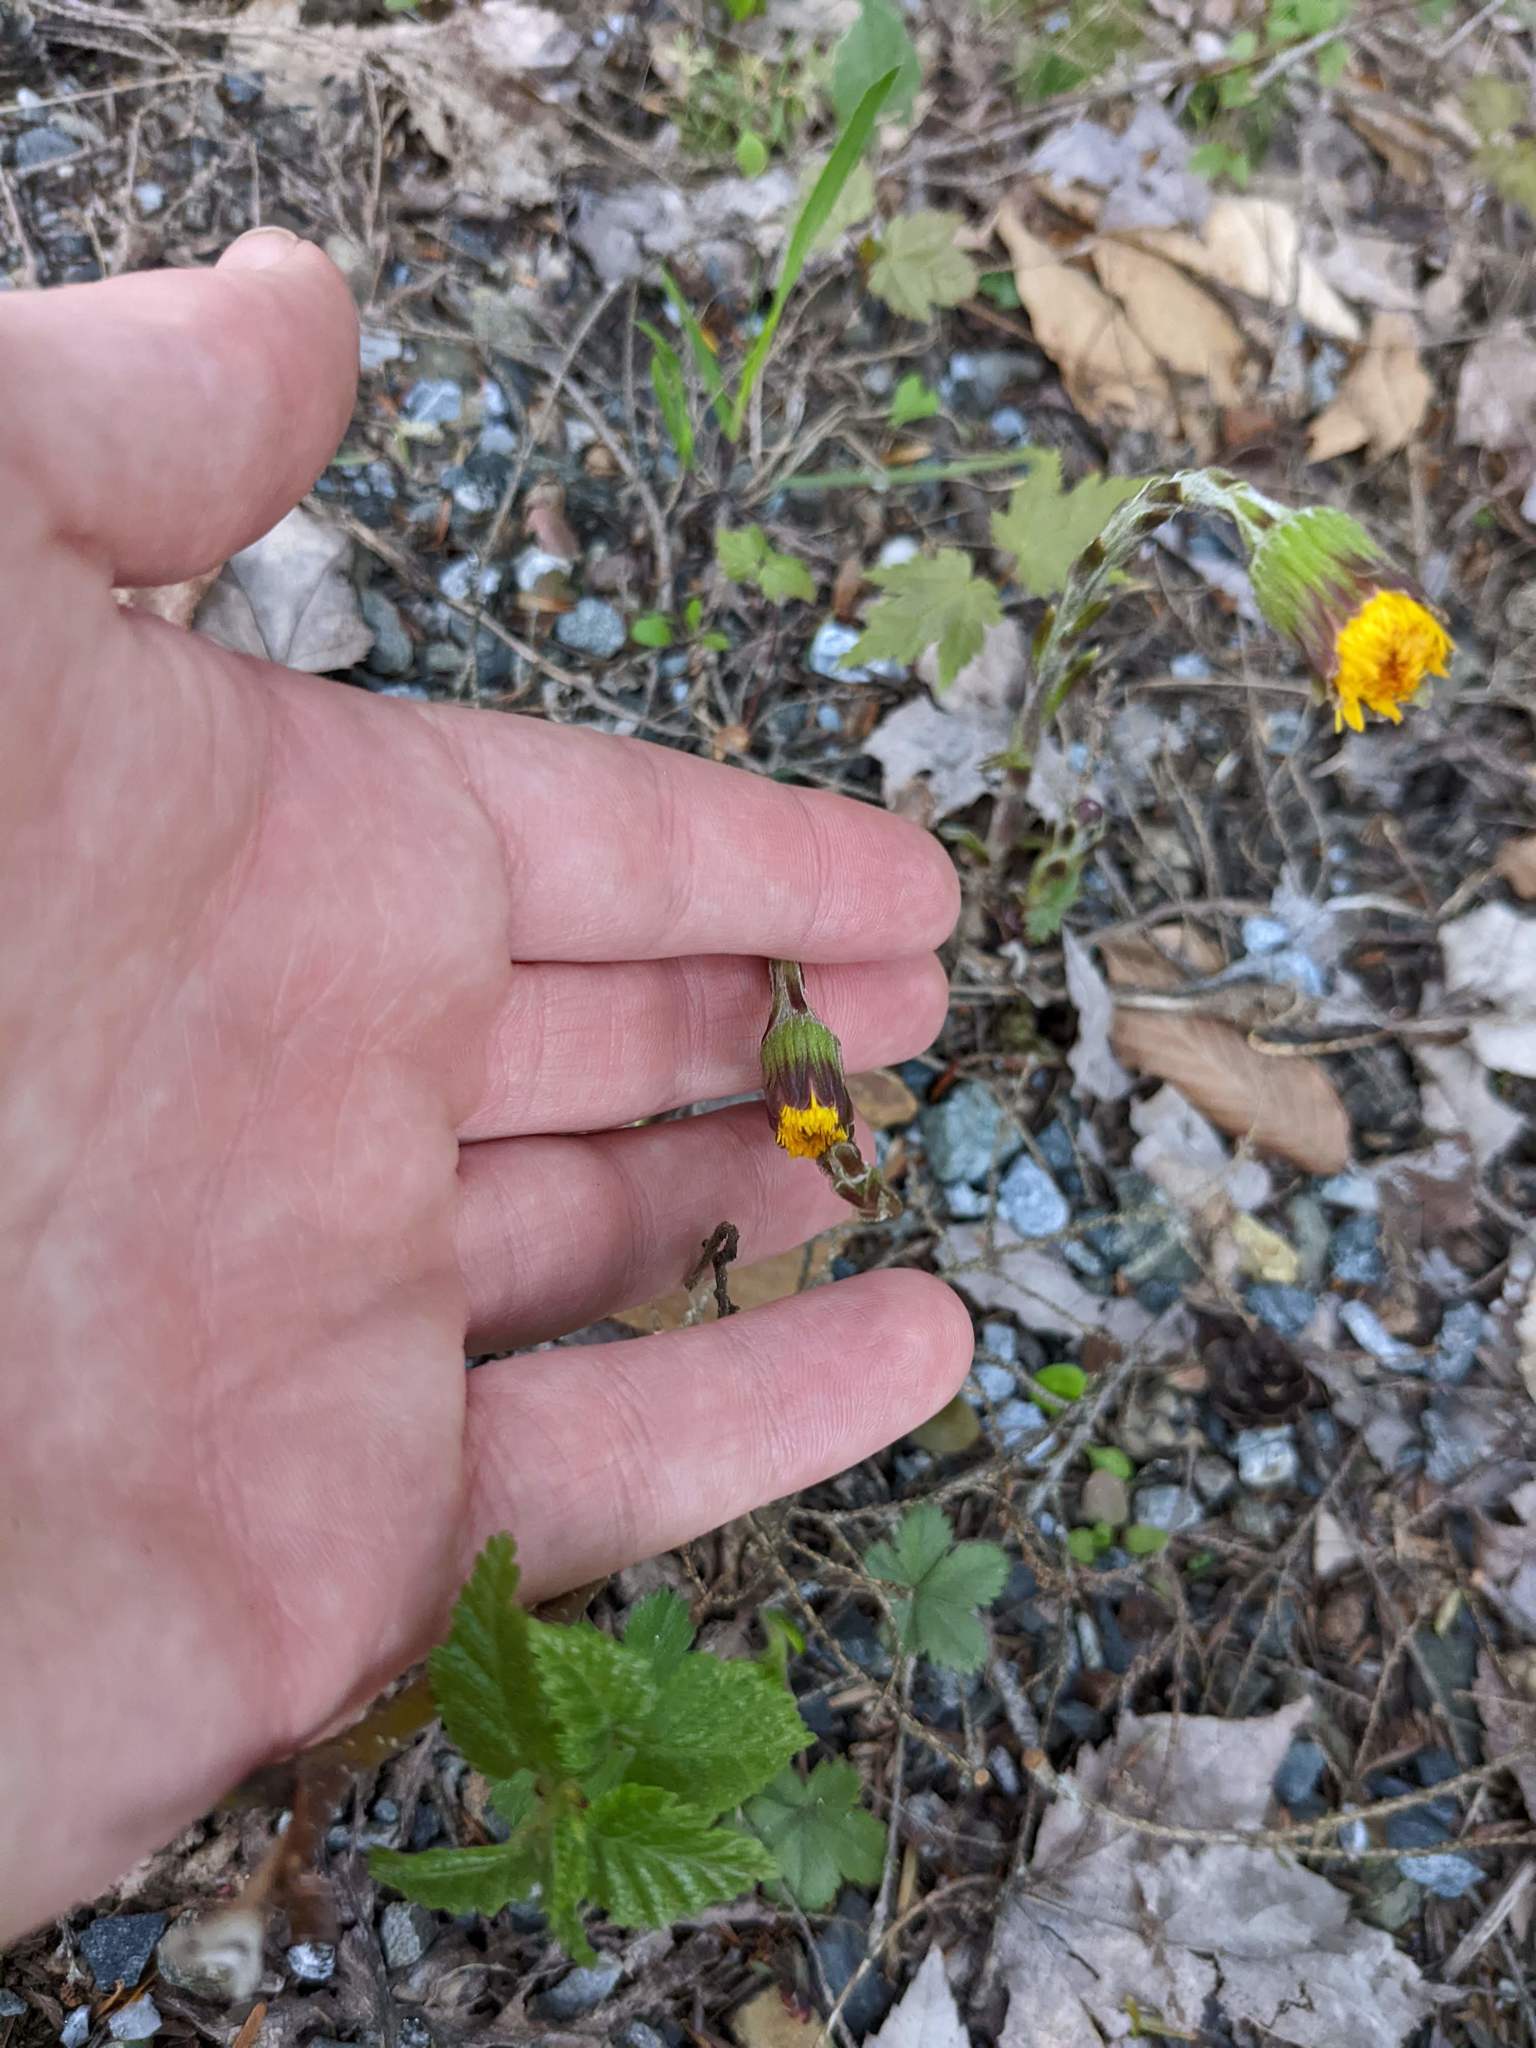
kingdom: Plantae
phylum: Tracheophyta
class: Magnoliopsida
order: Asterales
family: Asteraceae
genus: Tussilago
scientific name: Tussilago farfara
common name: Coltsfoot
